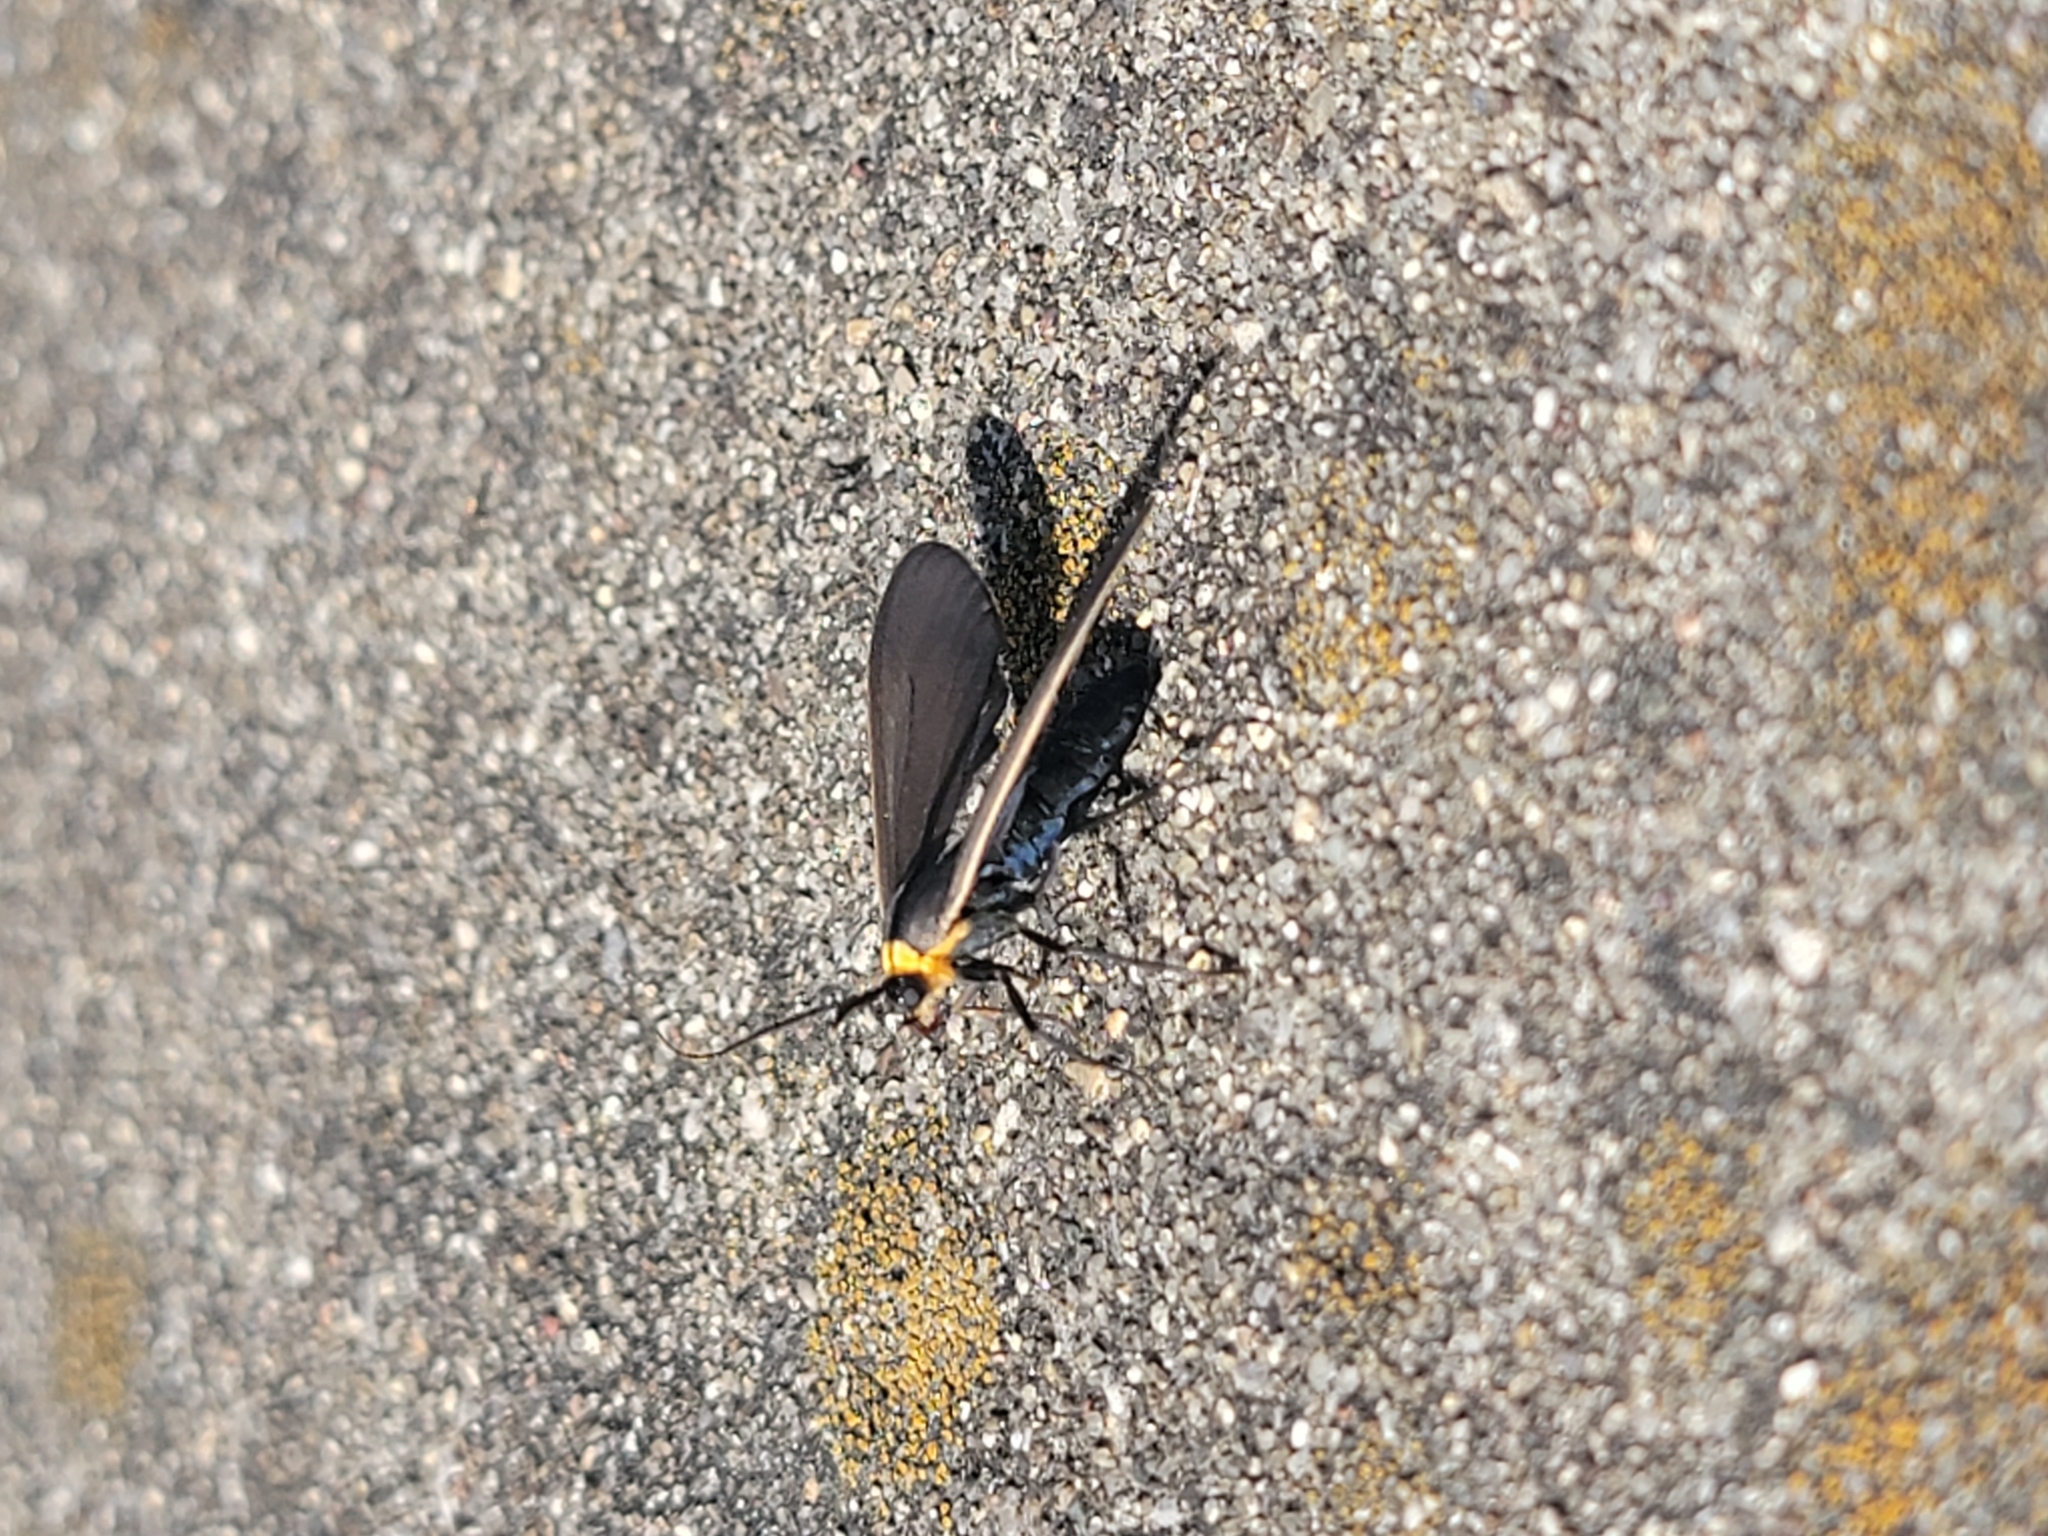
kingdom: Animalia
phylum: Arthropoda
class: Insecta
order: Lepidoptera
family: Erebidae
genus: Cisseps
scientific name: Cisseps fulvicollis
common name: Yellow-collared scape moth
